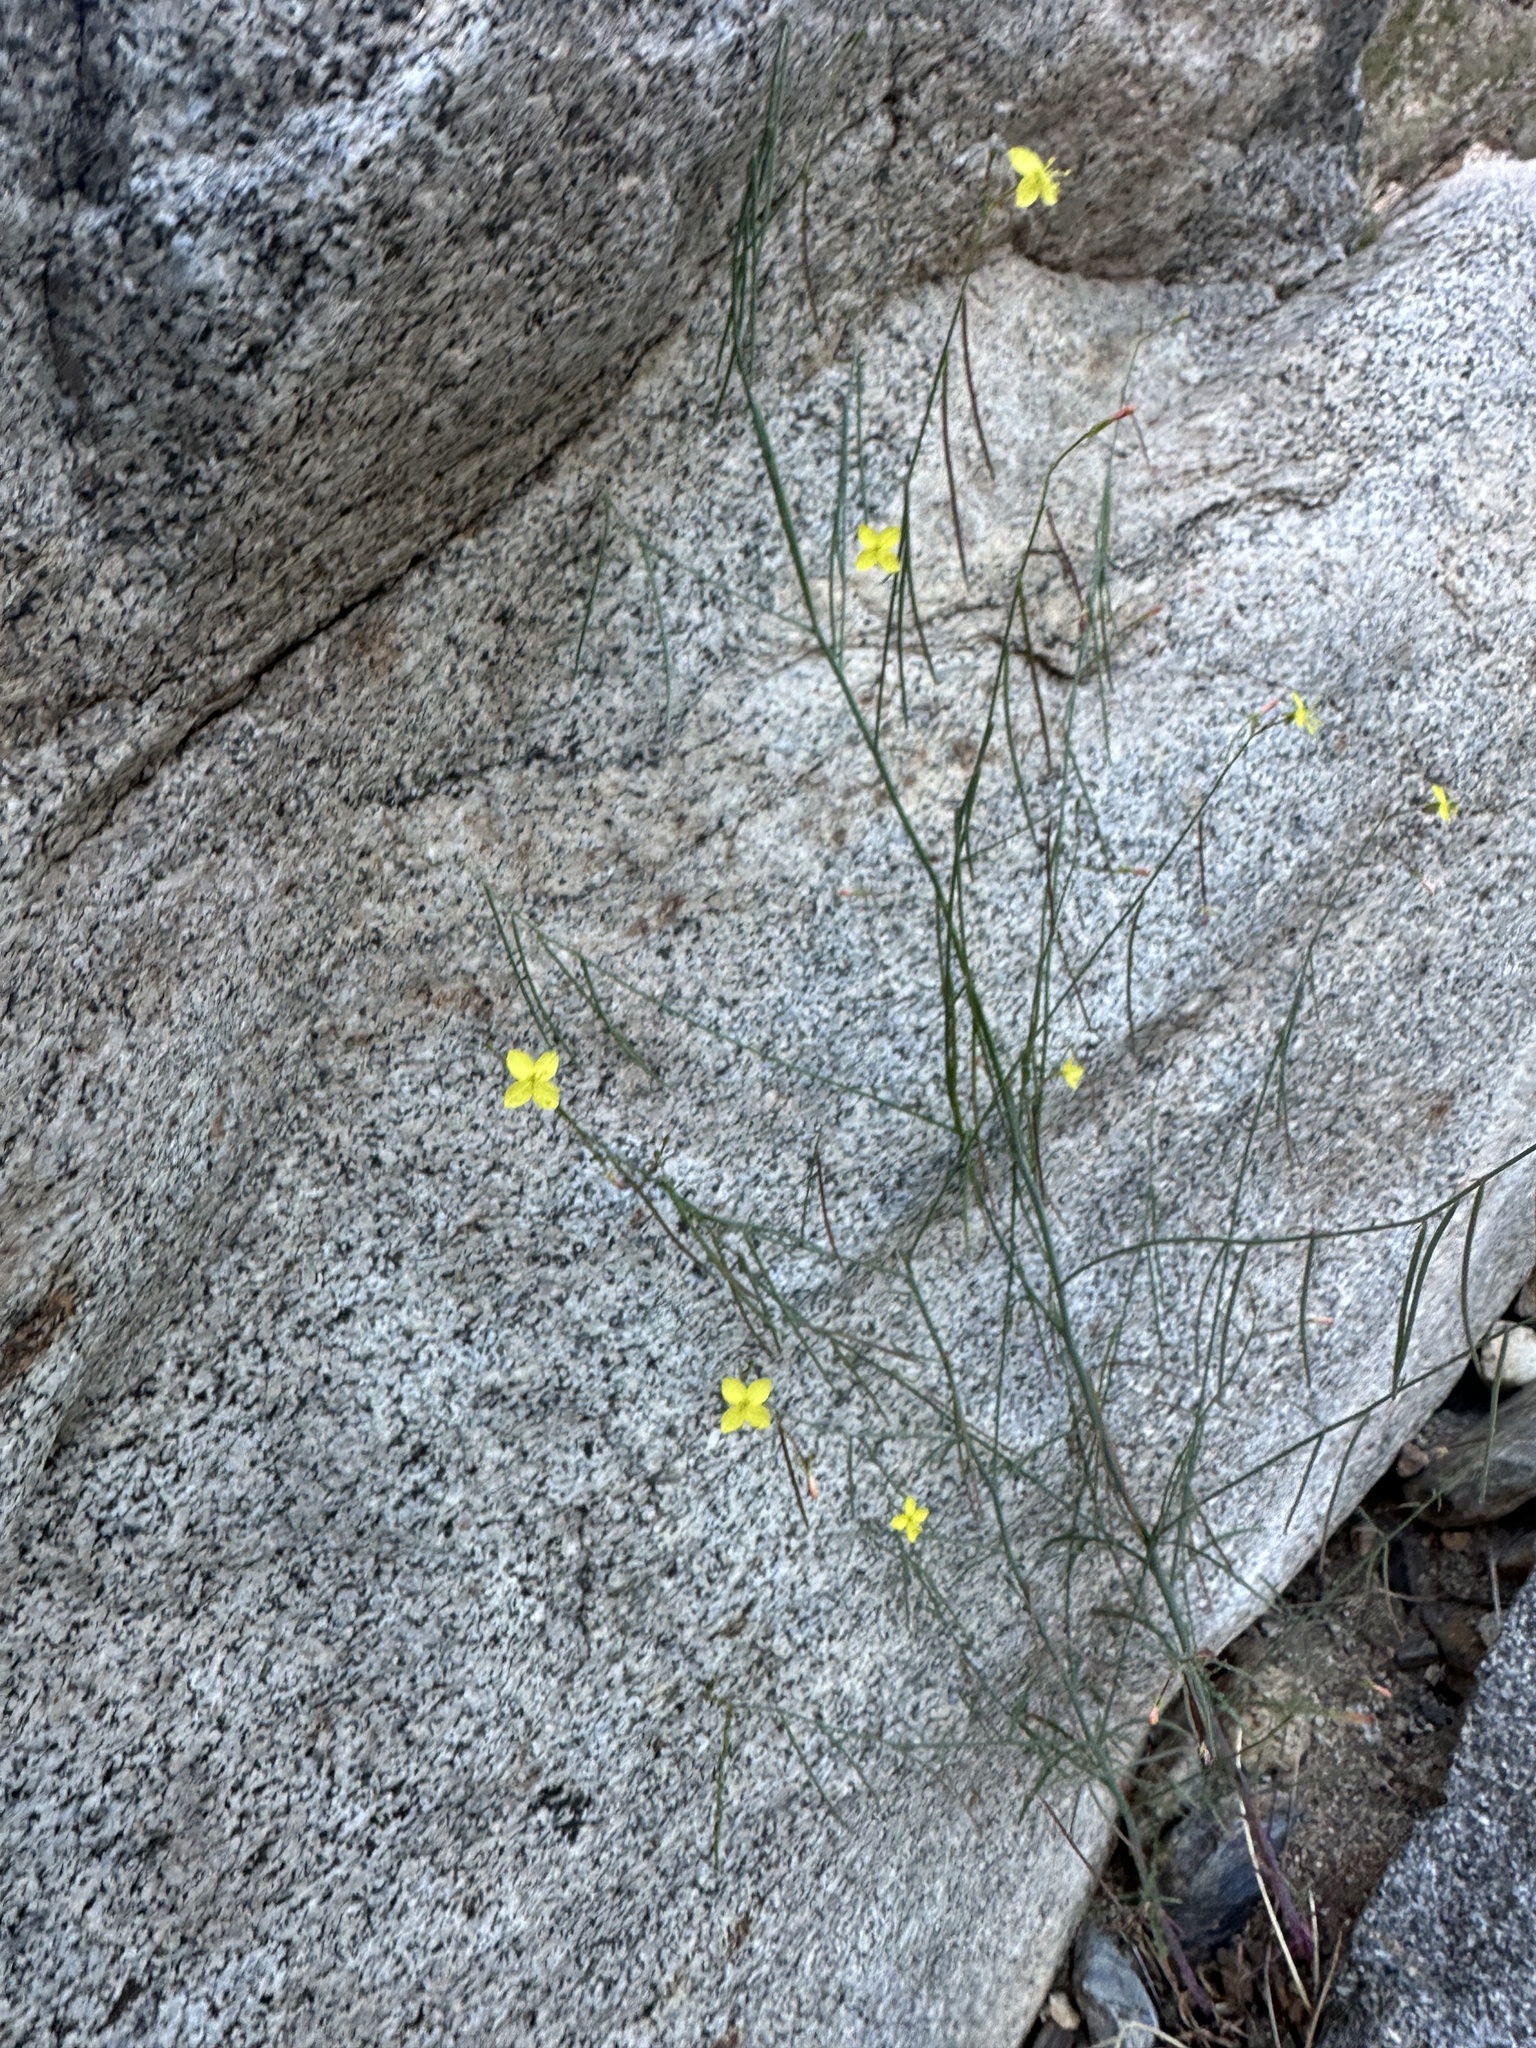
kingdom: Plantae
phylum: Tracheophyta
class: Magnoliopsida
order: Myrtales
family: Onagraceae
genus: Eulobus
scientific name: Eulobus californicus
